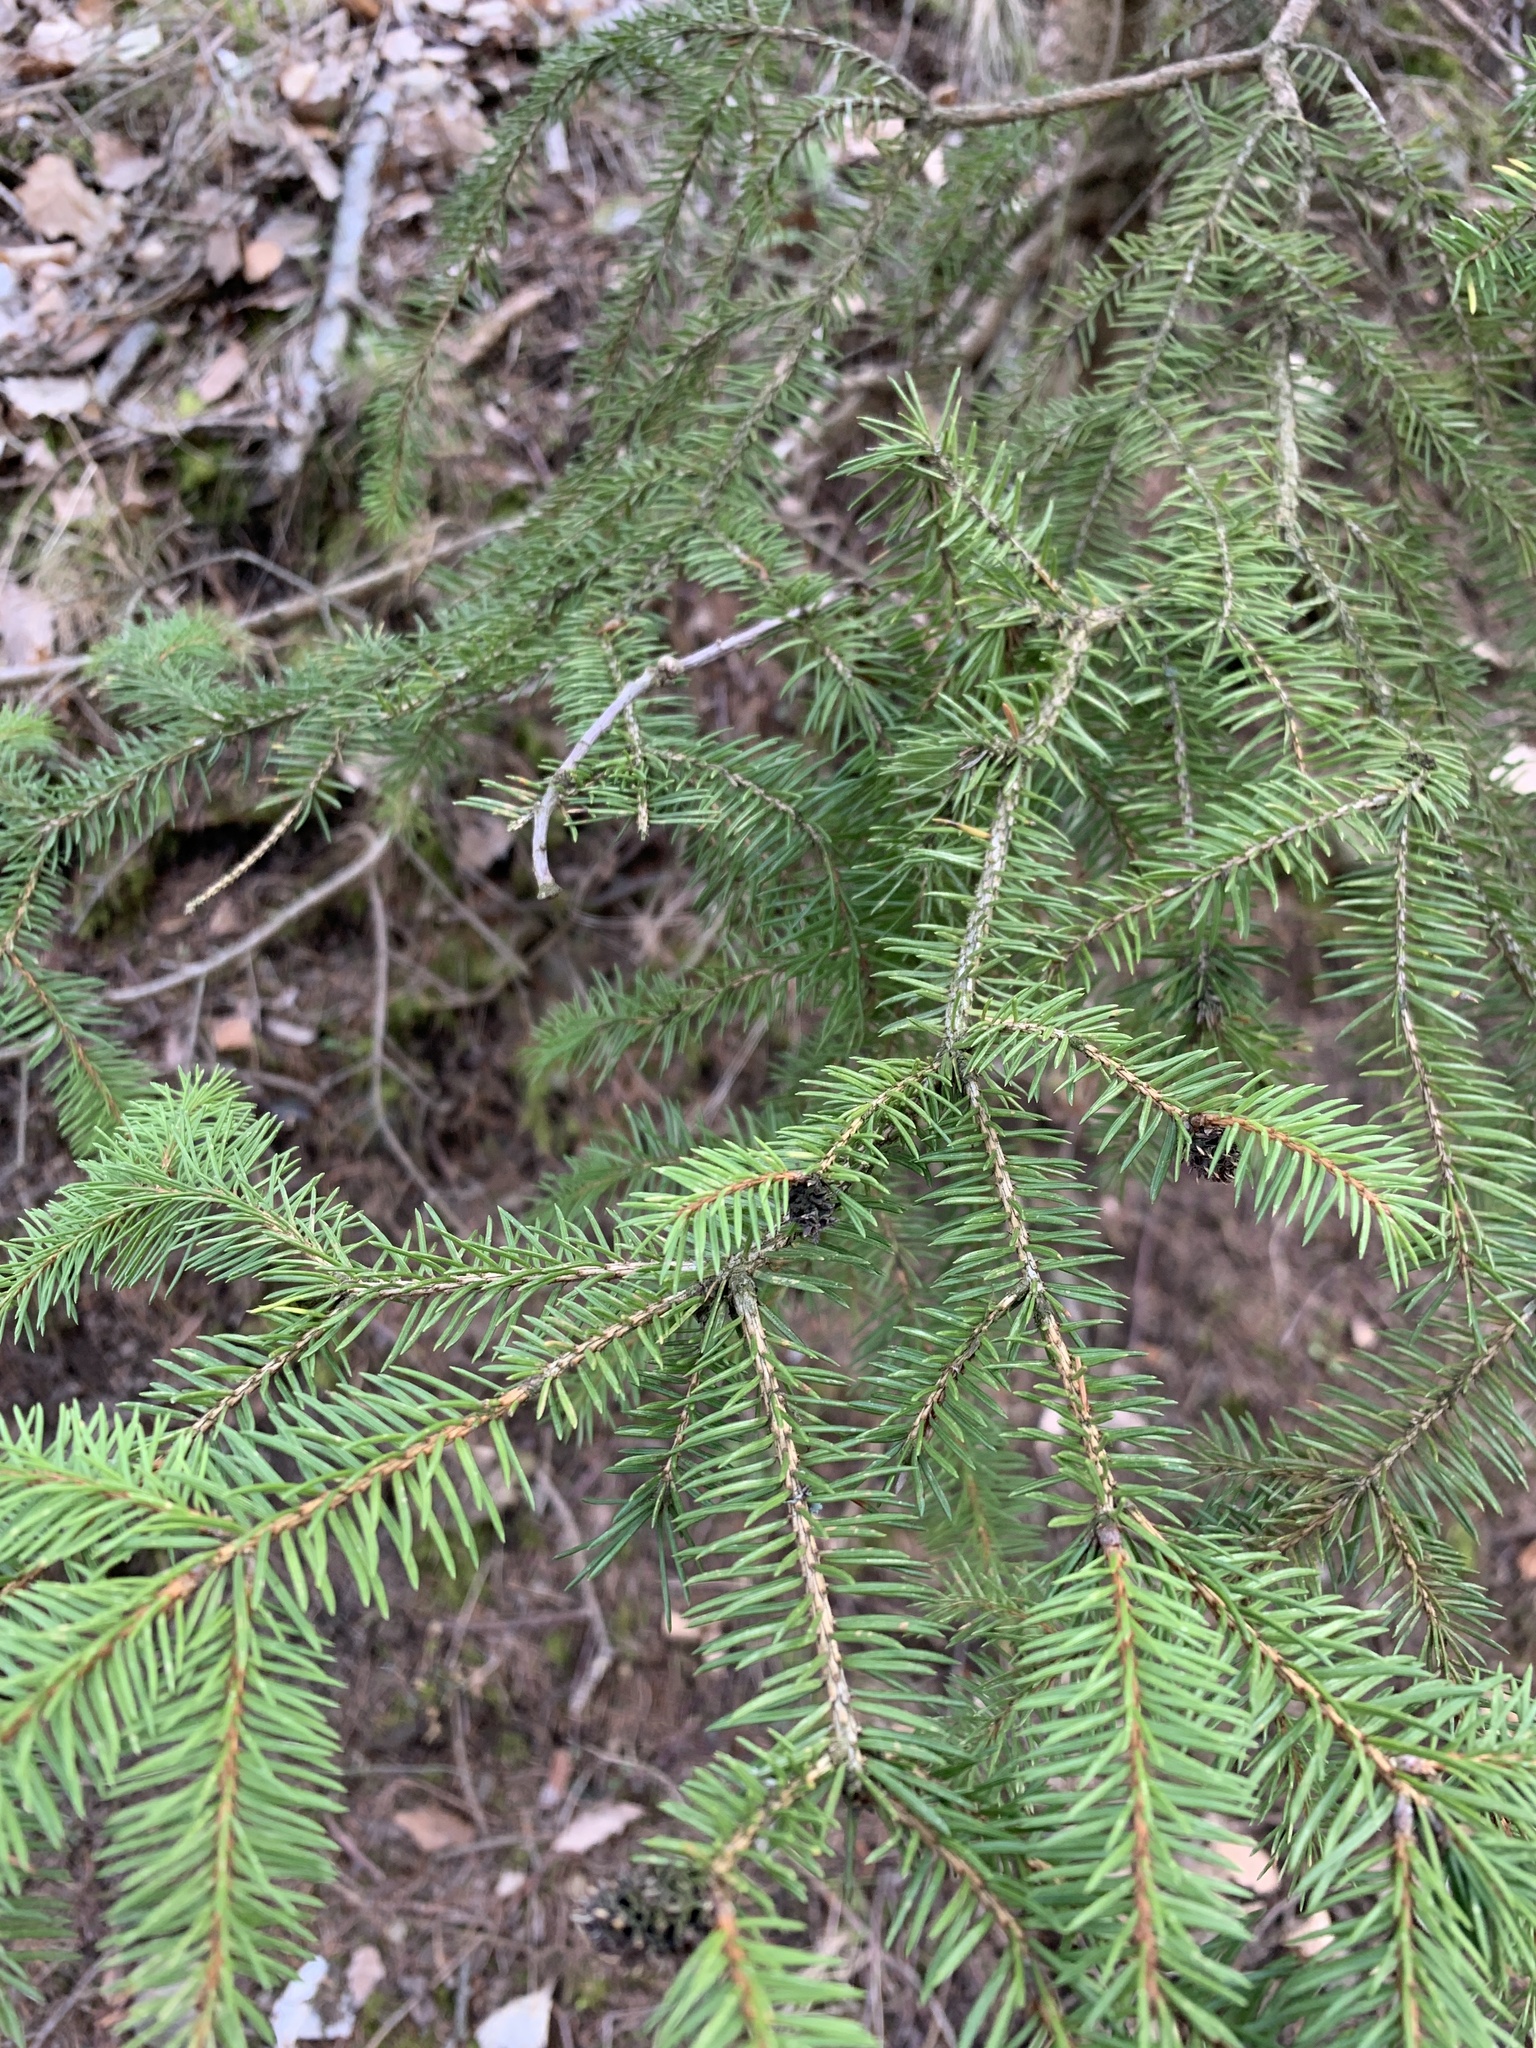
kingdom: Plantae
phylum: Tracheophyta
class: Pinopsida
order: Pinales
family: Pinaceae
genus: Picea
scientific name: Picea abies
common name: Norway spruce
